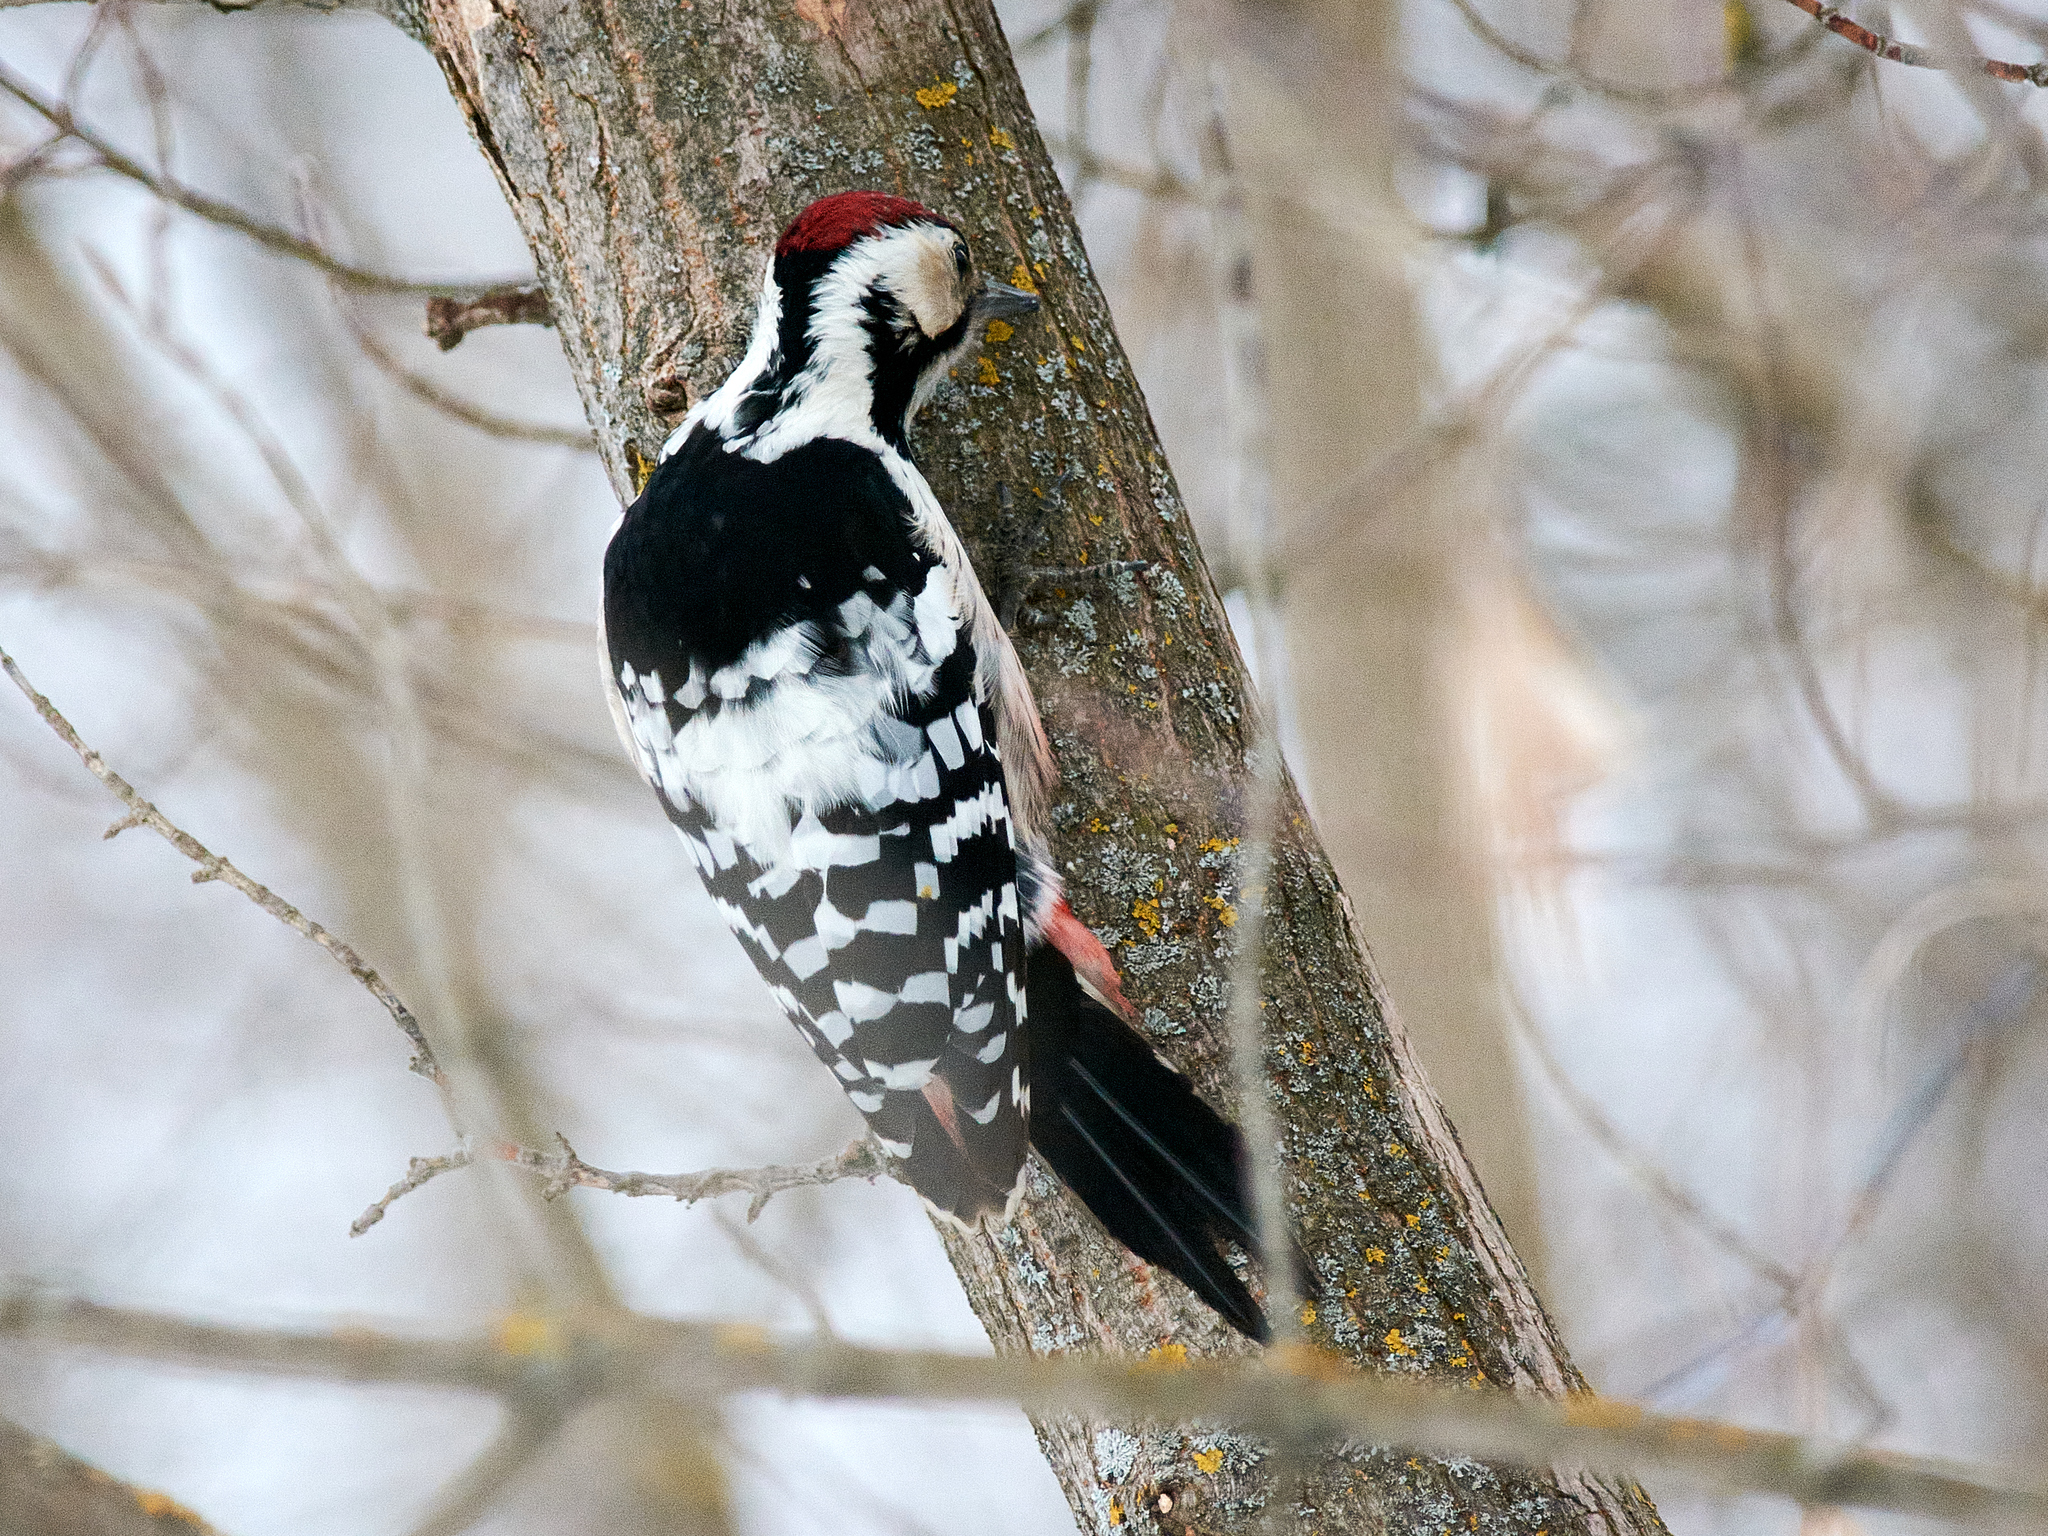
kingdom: Animalia
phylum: Chordata
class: Aves
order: Piciformes
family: Picidae
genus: Dendrocopos
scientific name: Dendrocopos leucotos
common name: White-backed woodpecker
